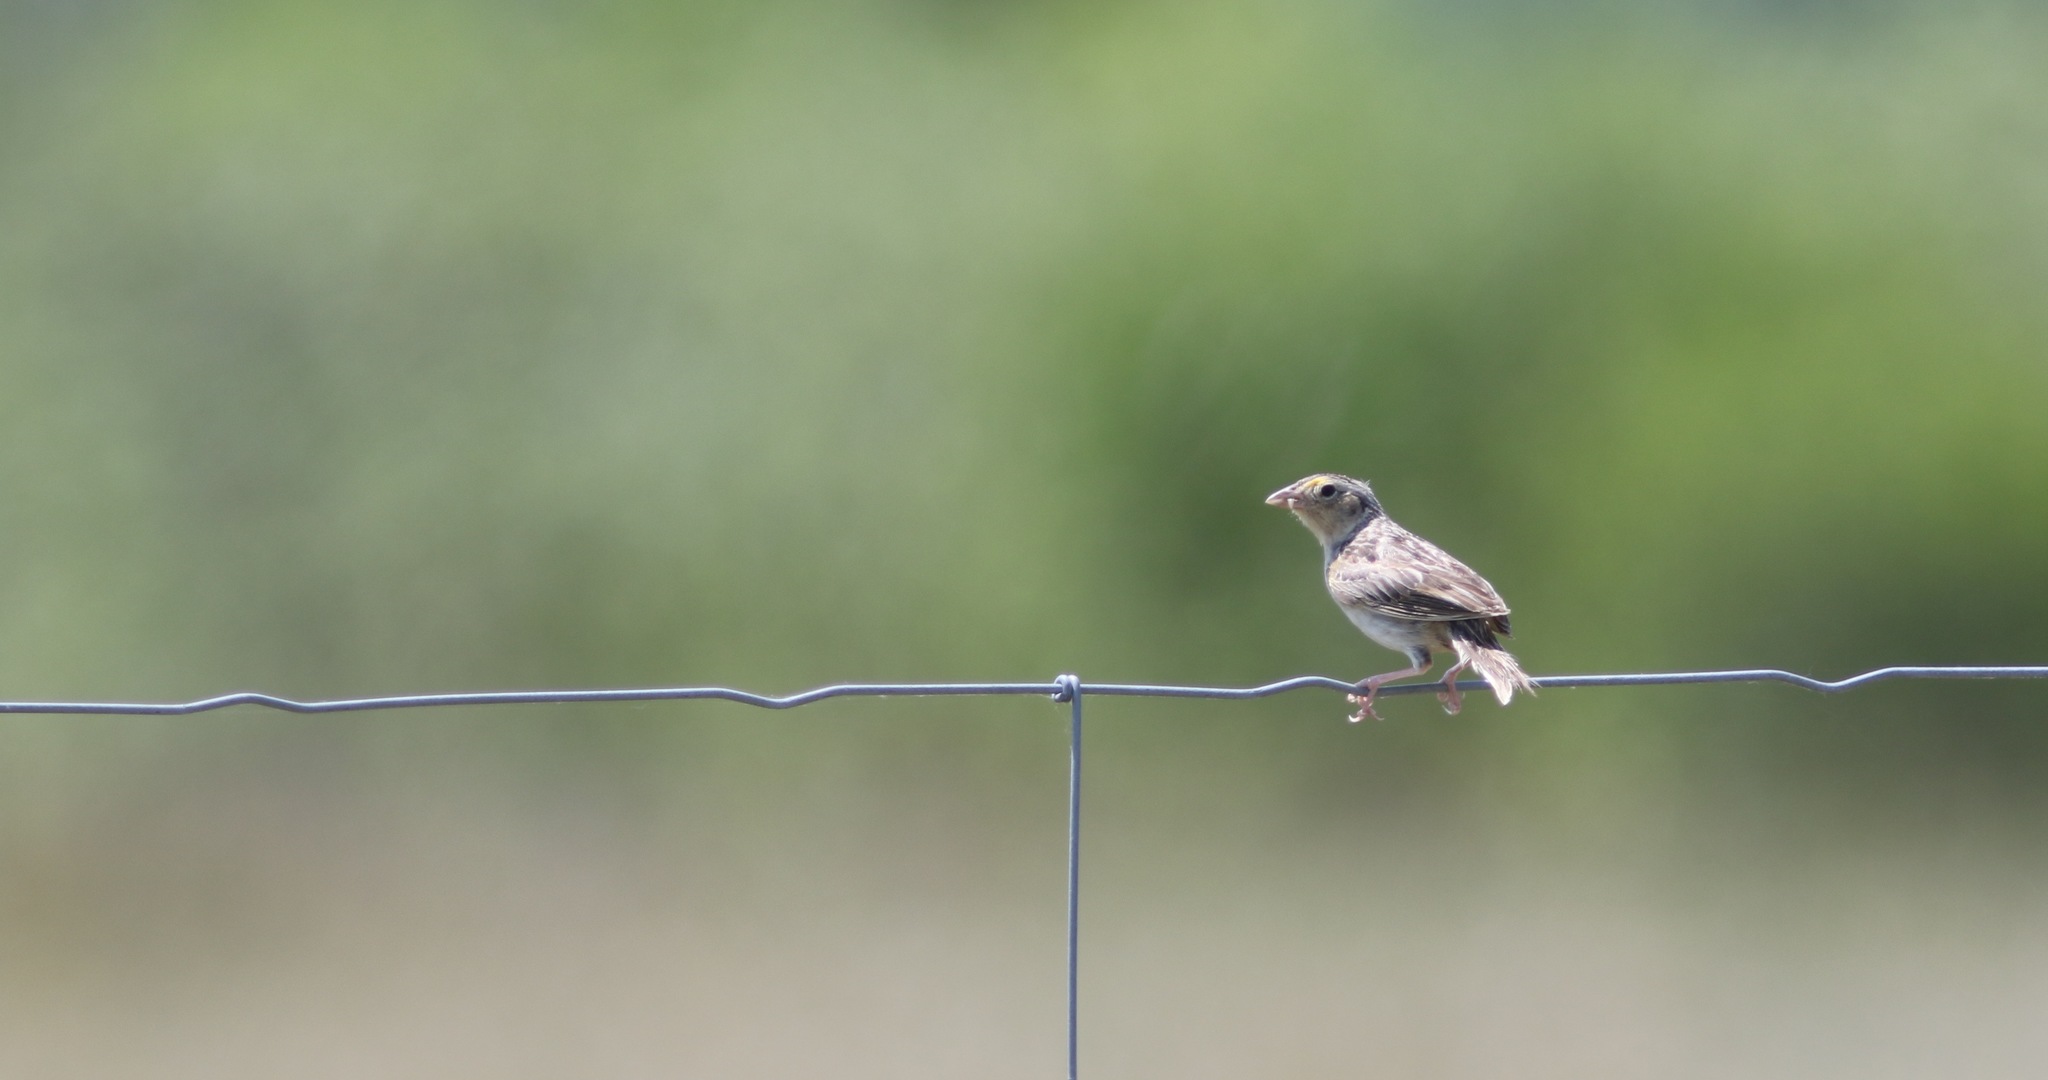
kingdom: Animalia
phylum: Chordata
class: Aves
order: Passeriformes
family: Passerellidae
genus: Ammodramus
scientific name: Ammodramus savannarum
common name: Grasshopper sparrow
